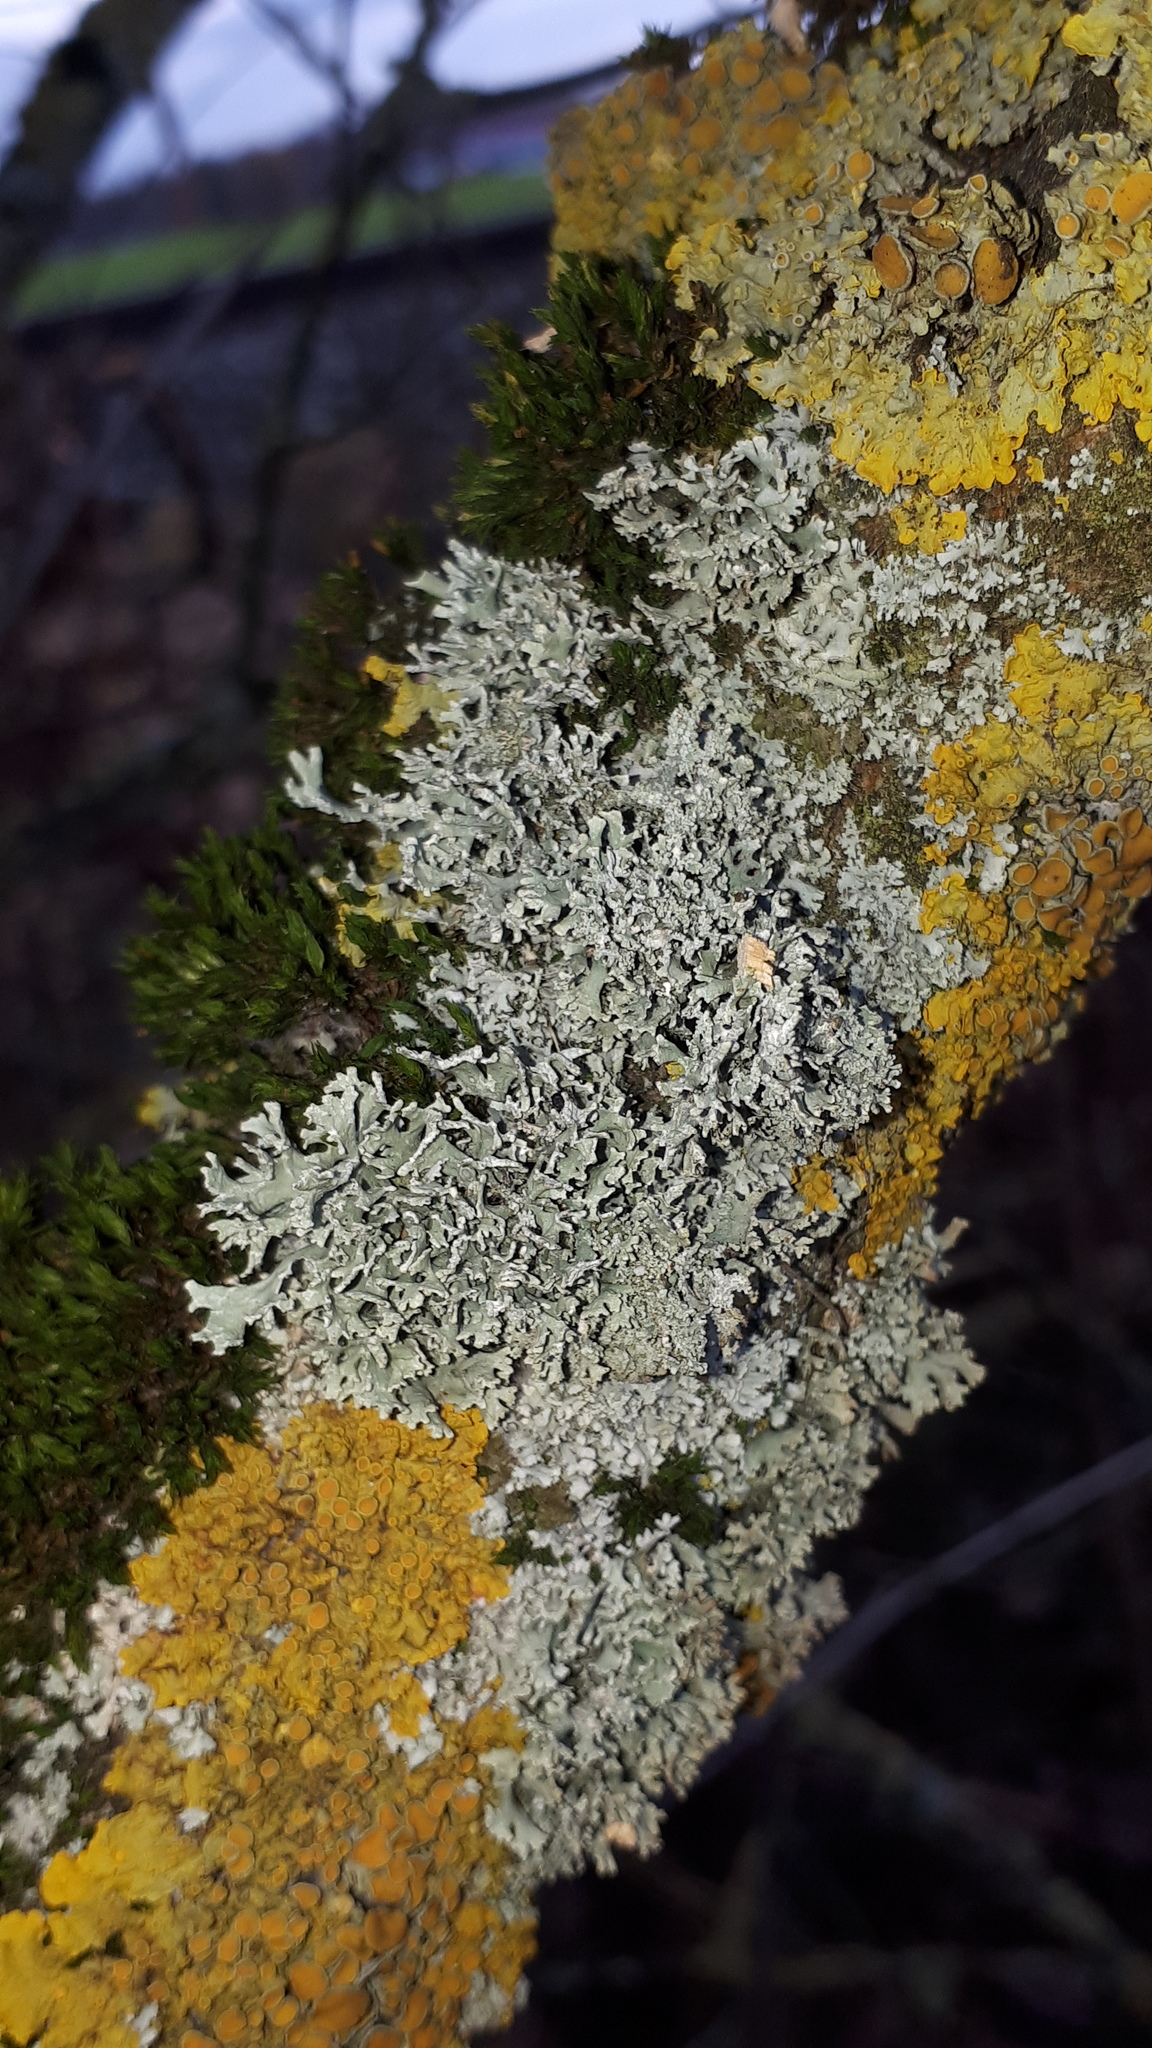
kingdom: Fungi
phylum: Ascomycota
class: Lecanoromycetes
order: Lecanorales
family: Parmeliaceae
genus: Evernia
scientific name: Evernia prunastri
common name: Oak moss
